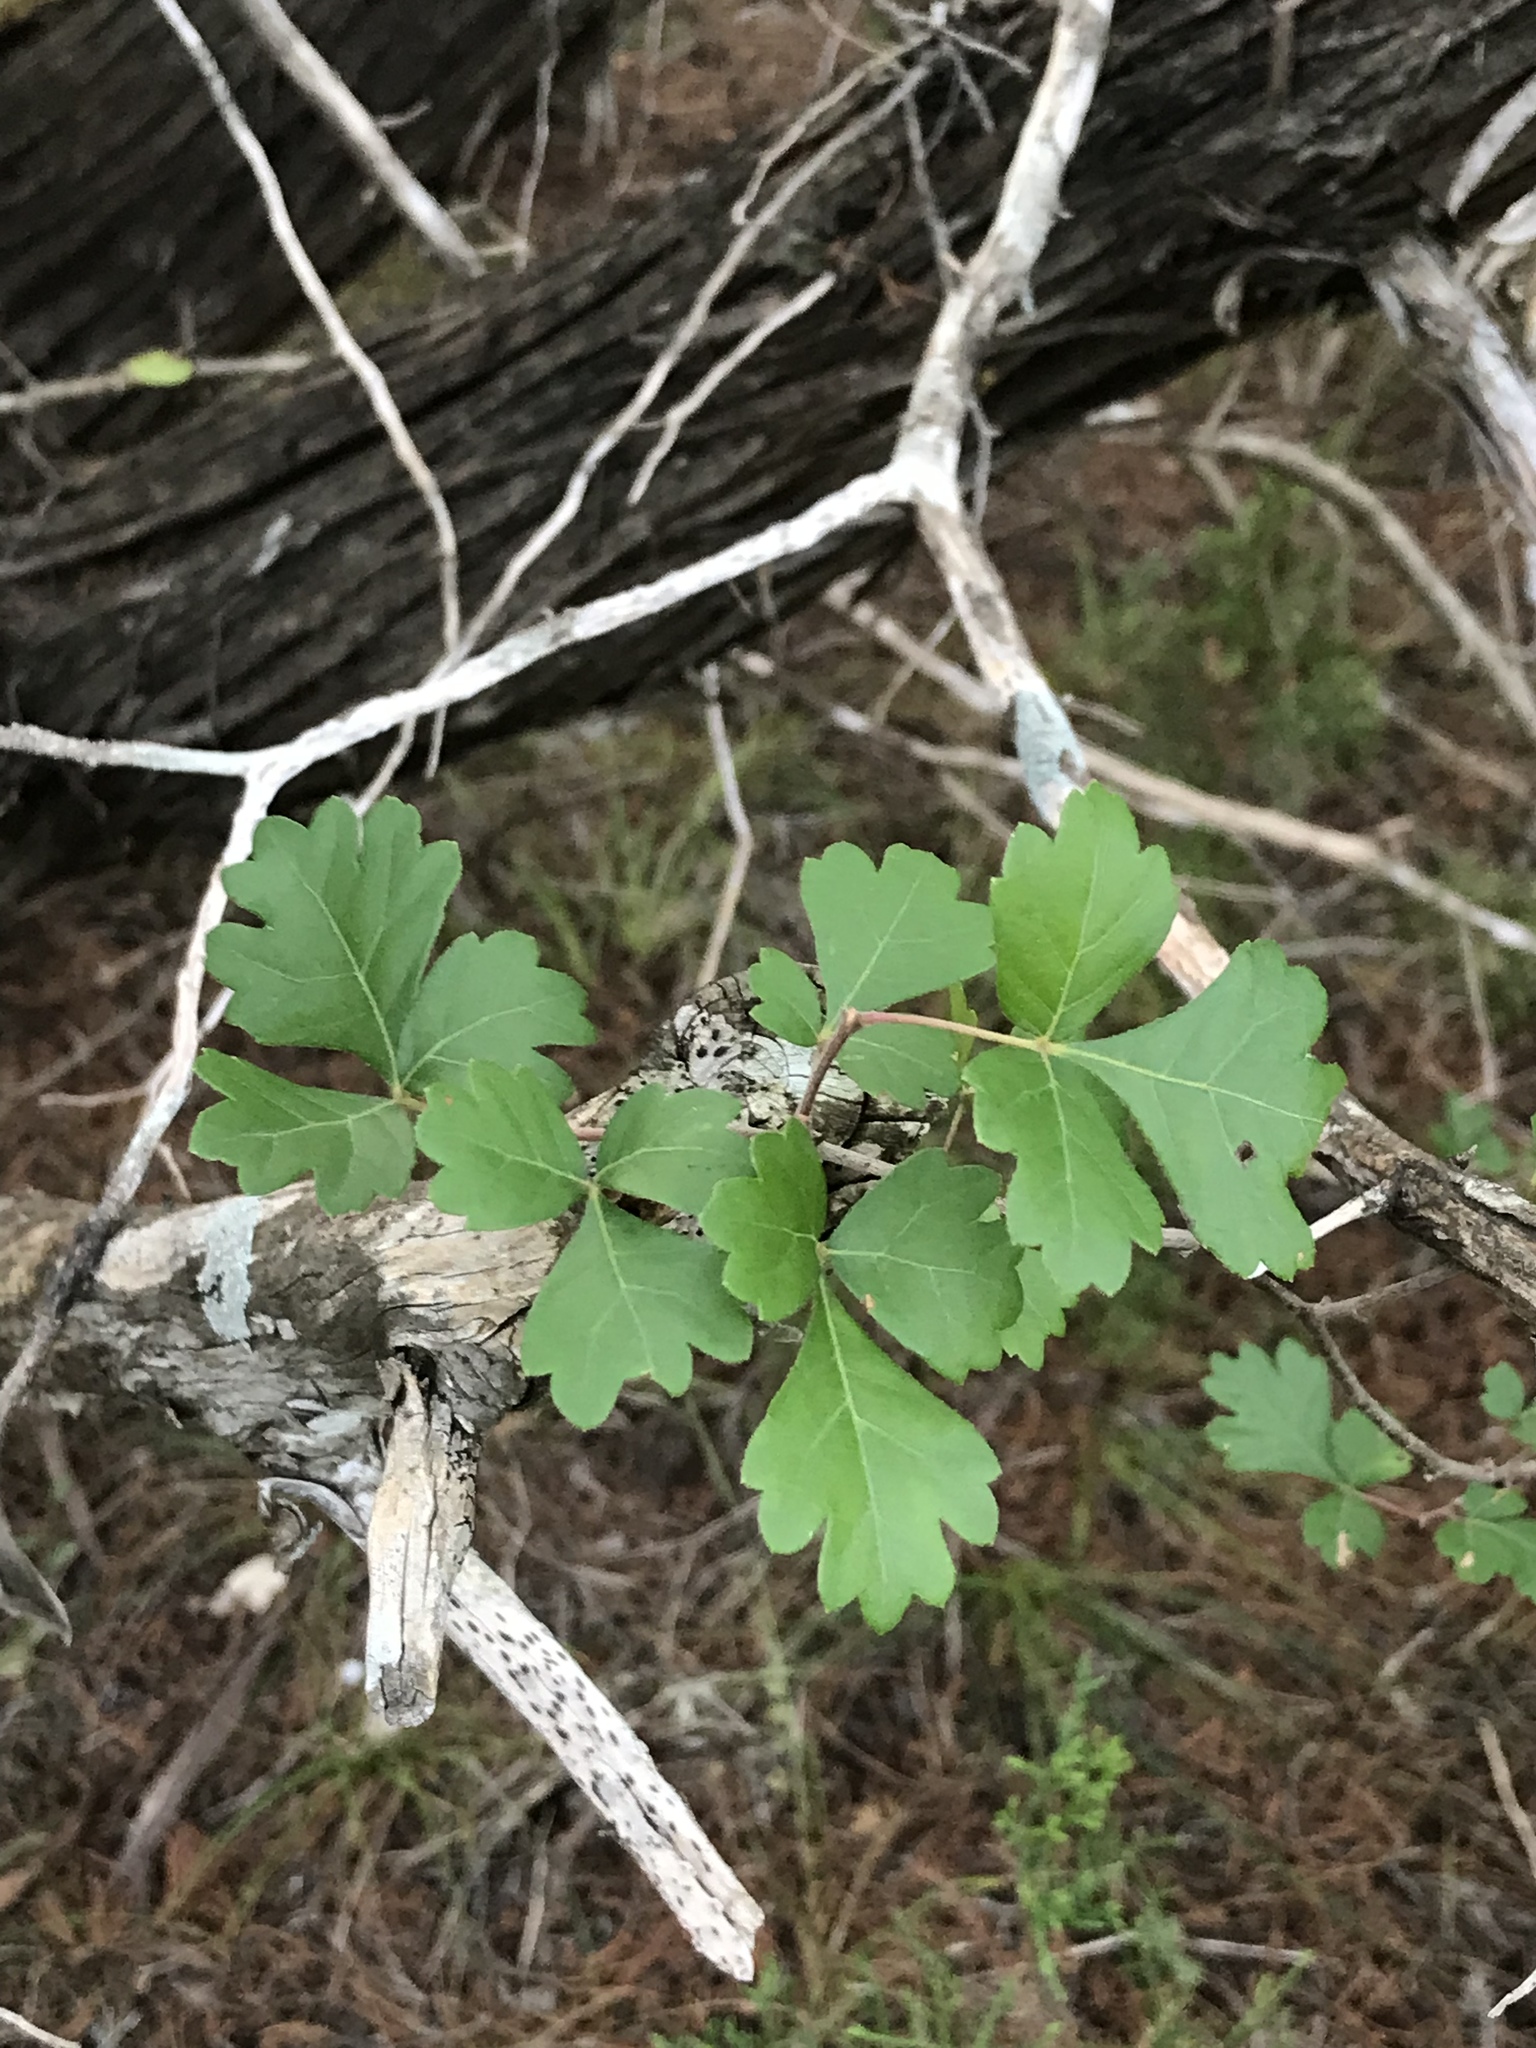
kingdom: Plantae
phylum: Tracheophyta
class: Magnoliopsida
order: Sapindales
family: Anacardiaceae
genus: Rhus
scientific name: Rhus aromatica
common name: Aromatic sumac
